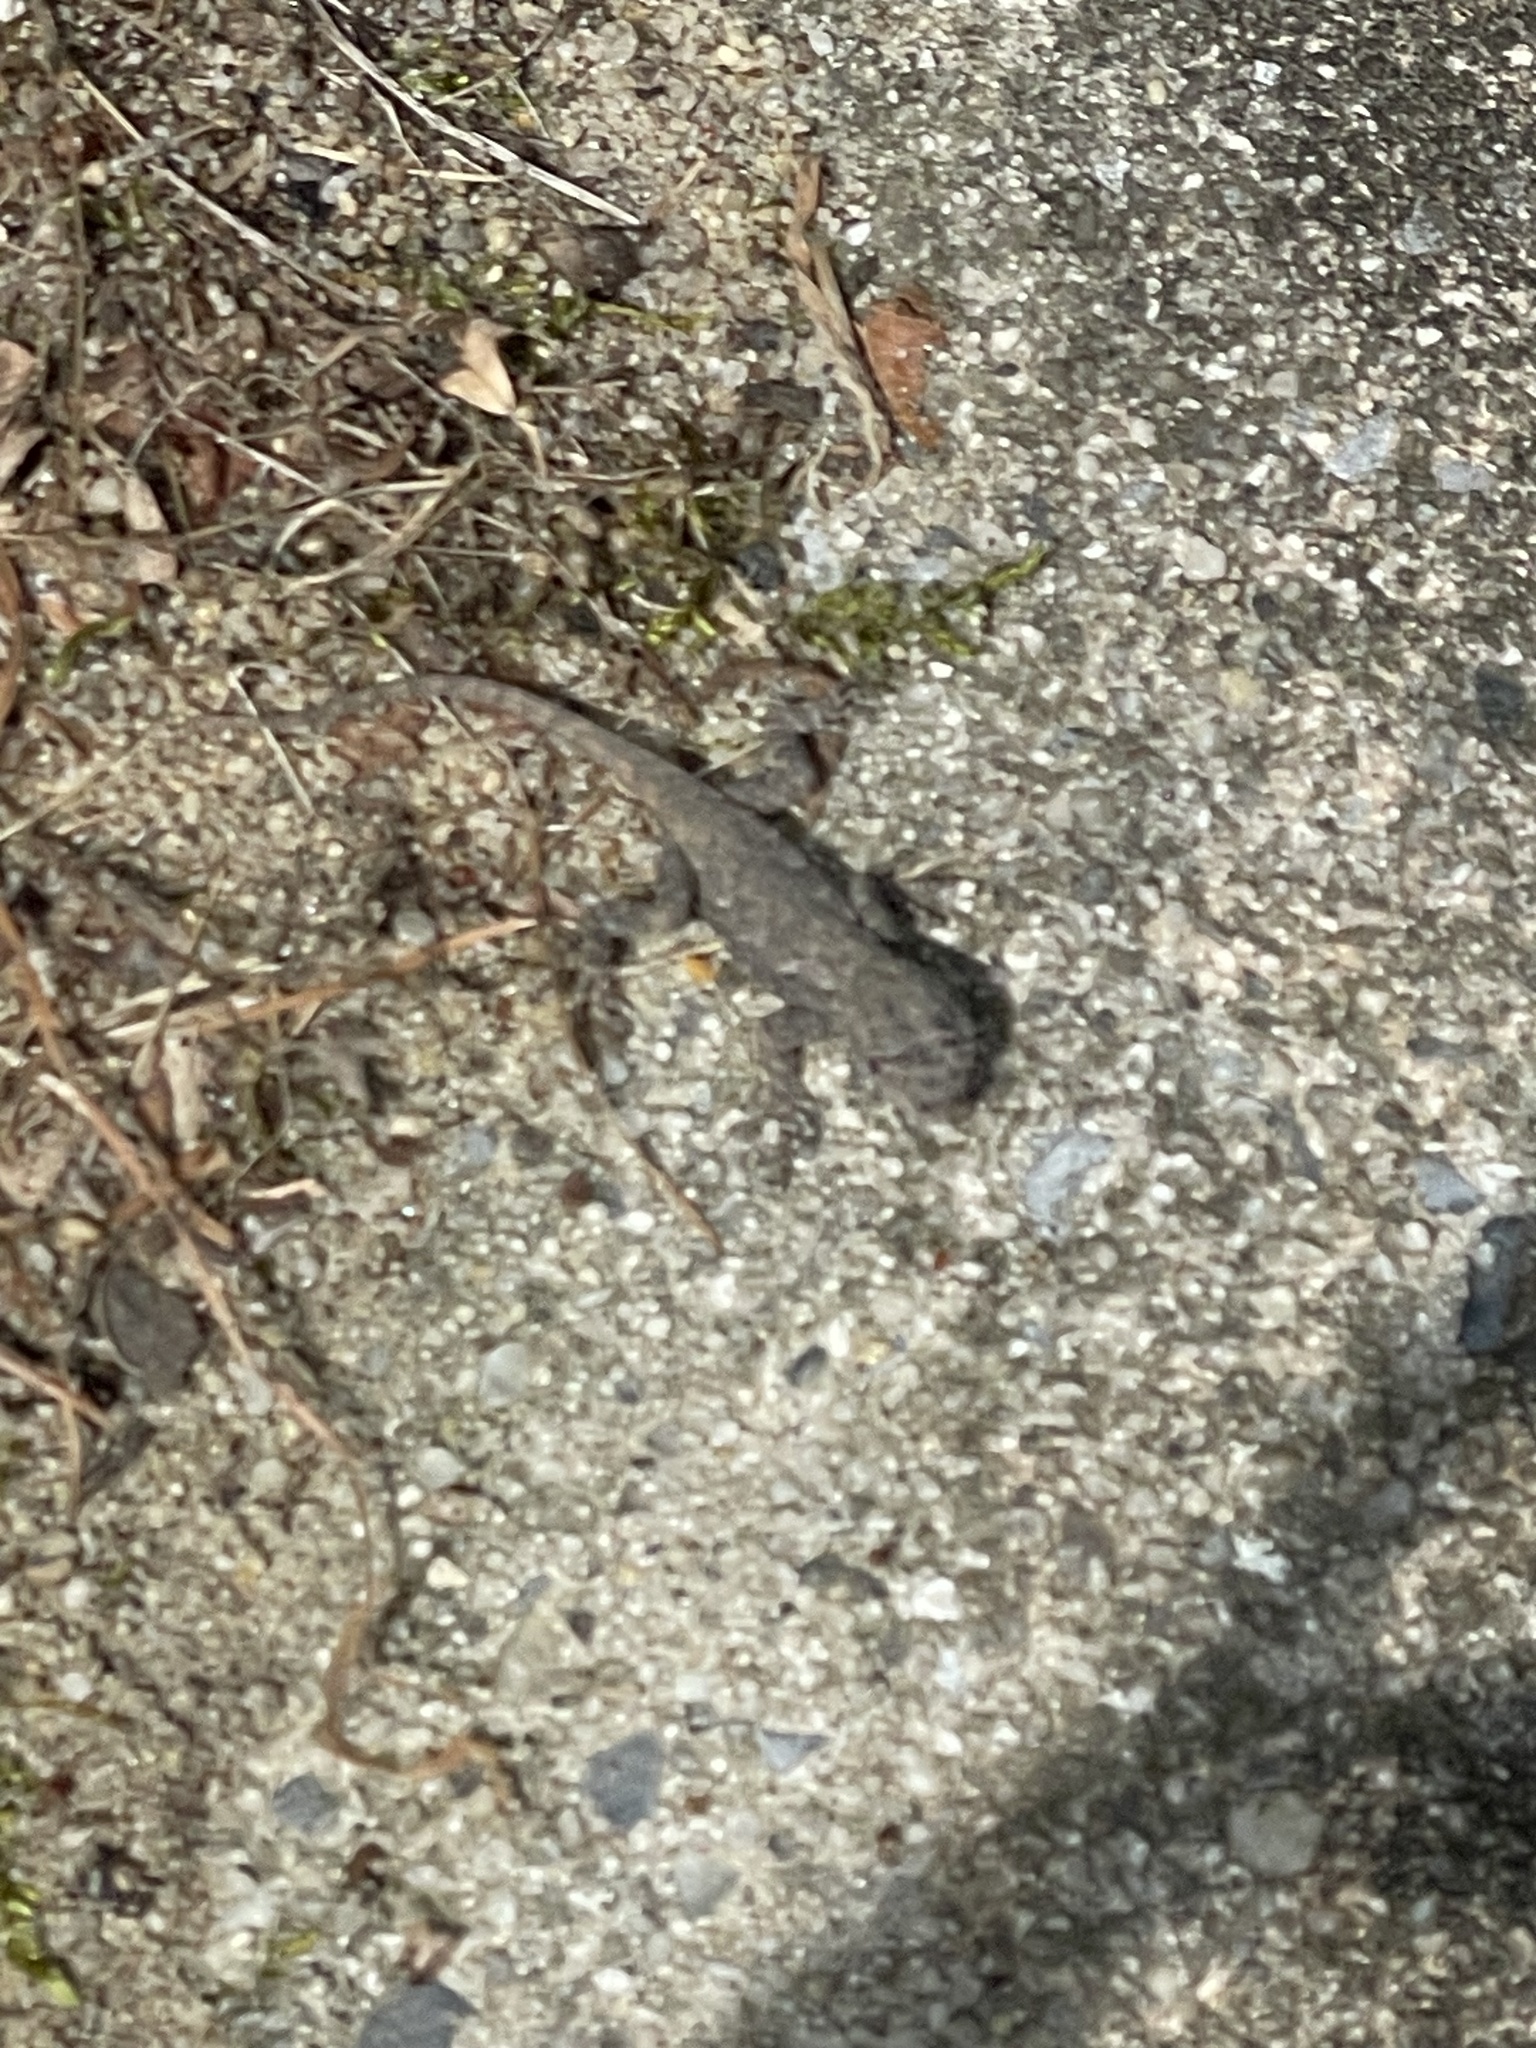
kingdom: Animalia
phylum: Chordata
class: Squamata
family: Phrynosomatidae
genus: Sceloporus
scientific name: Sceloporus undulatus
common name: Eastern fence lizard
